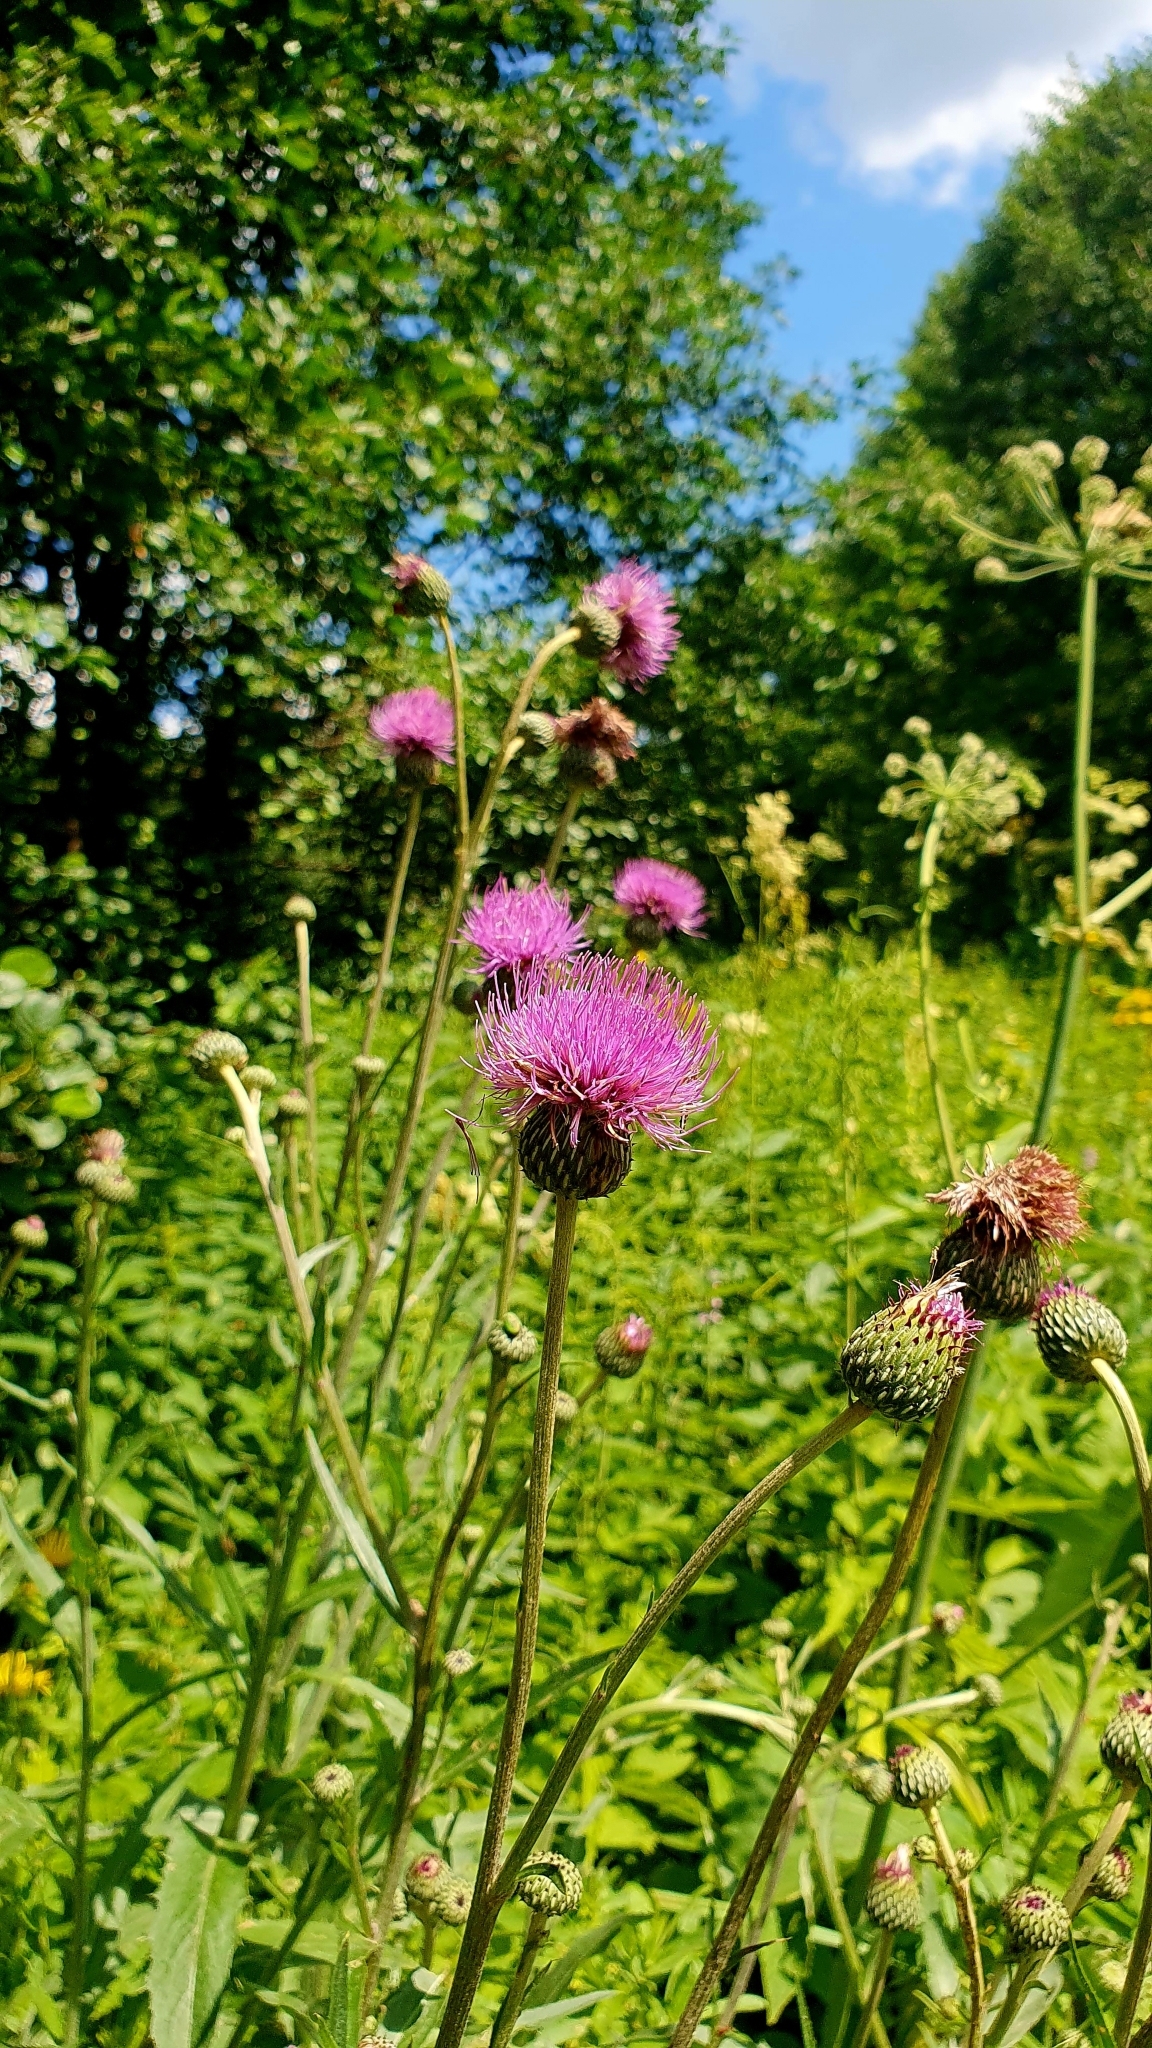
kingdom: Plantae
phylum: Tracheophyta
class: Magnoliopsida
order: Asterales
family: Asteraceae
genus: Cirsium
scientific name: Cirsium canum
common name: Queen anne's thistle
